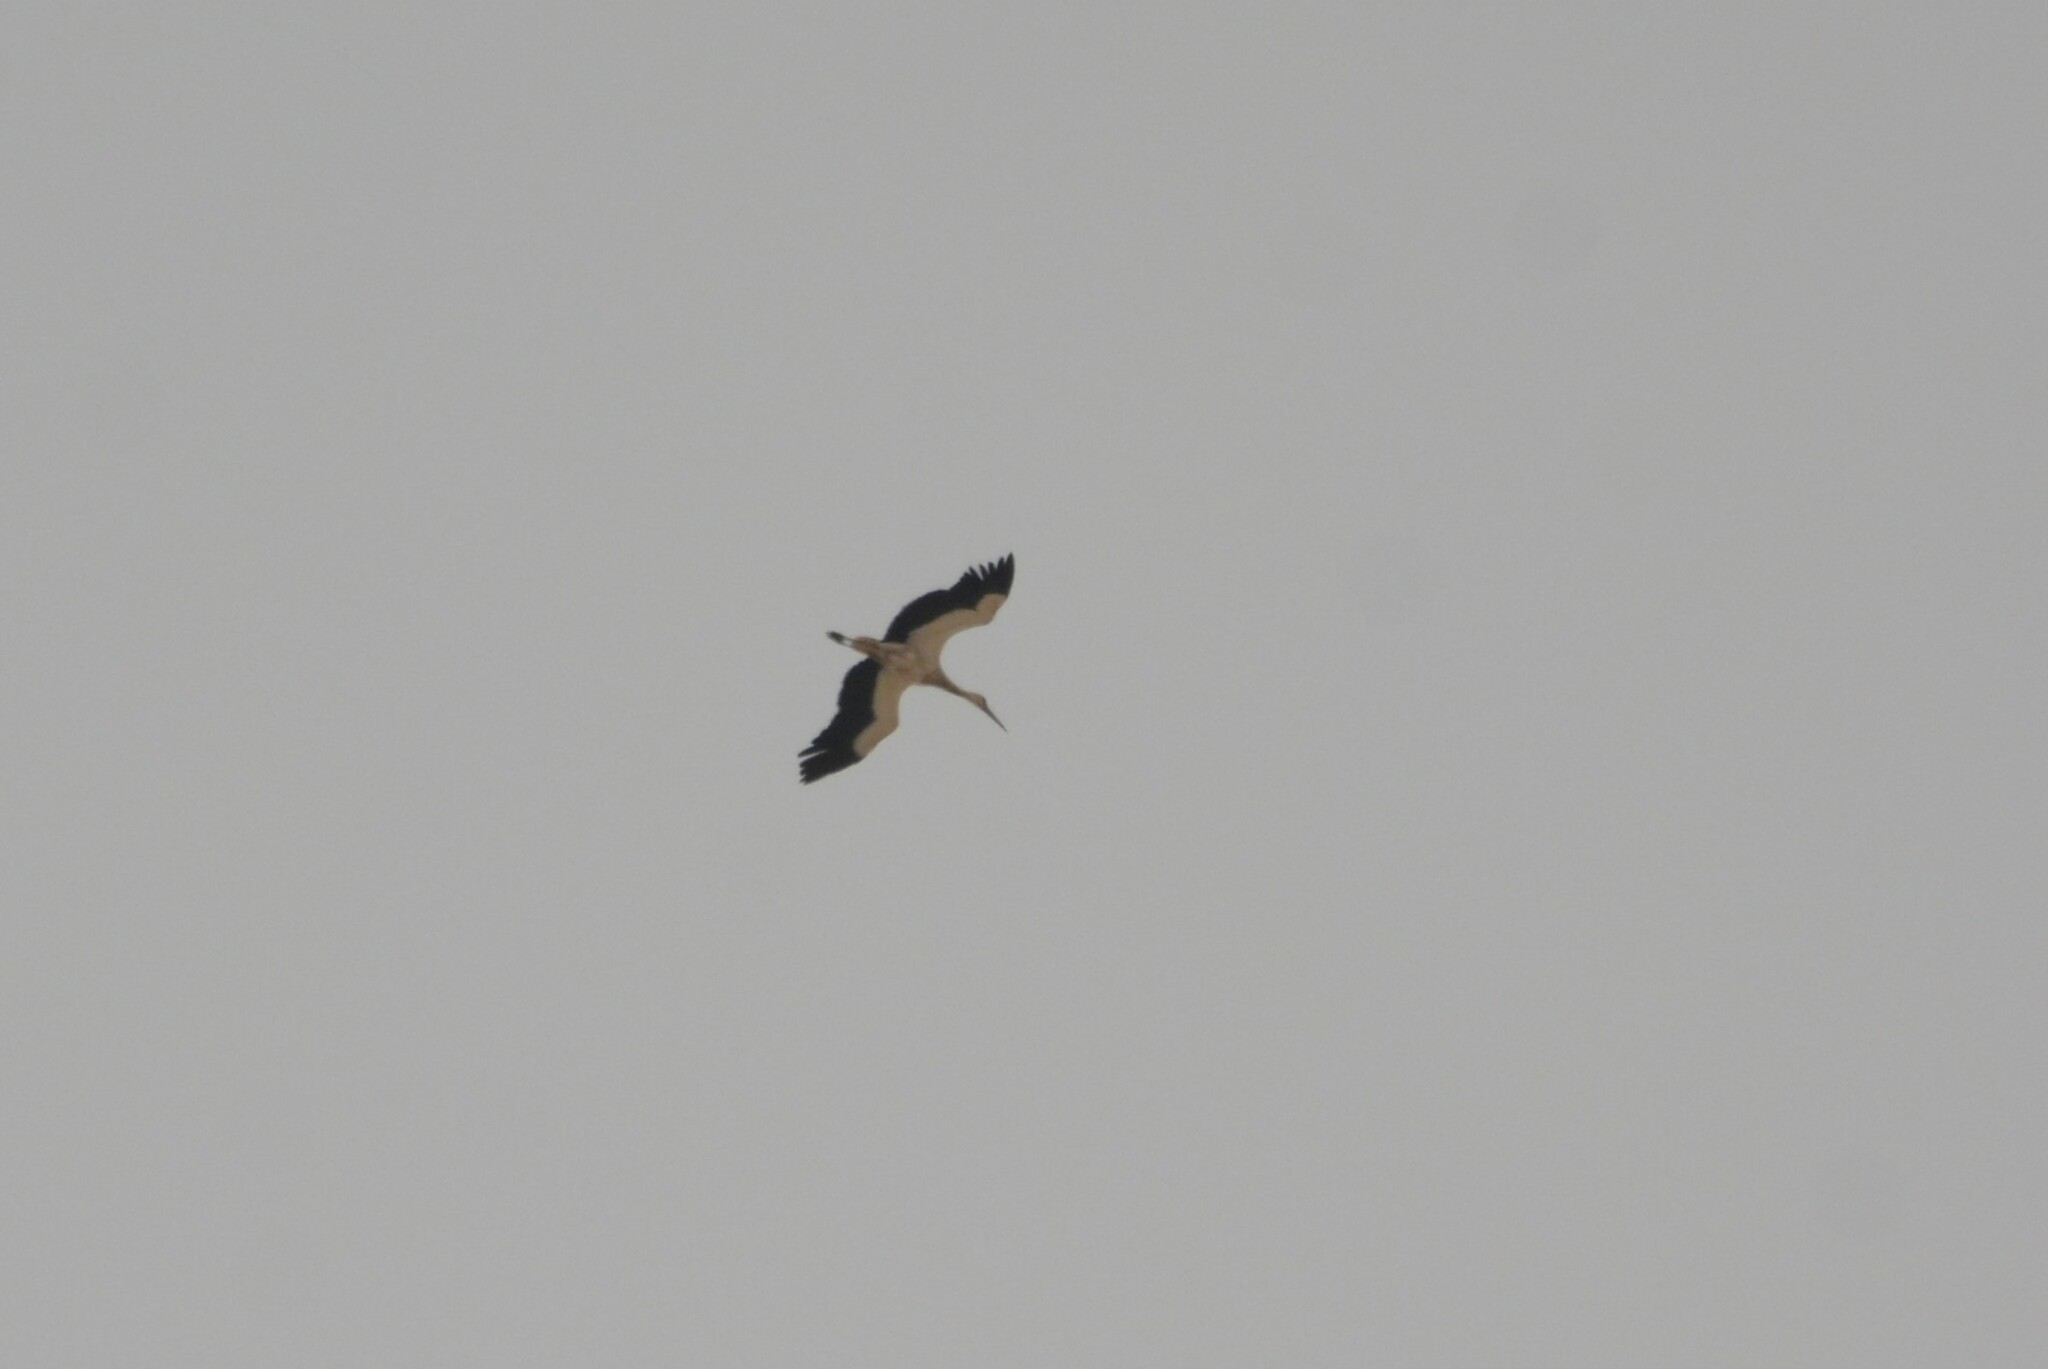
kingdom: Animalia
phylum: Chordata
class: Aves
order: Ciconiiformes
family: Ciconiidae
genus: Ciconia
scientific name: Ciconia ciconia
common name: White stork
